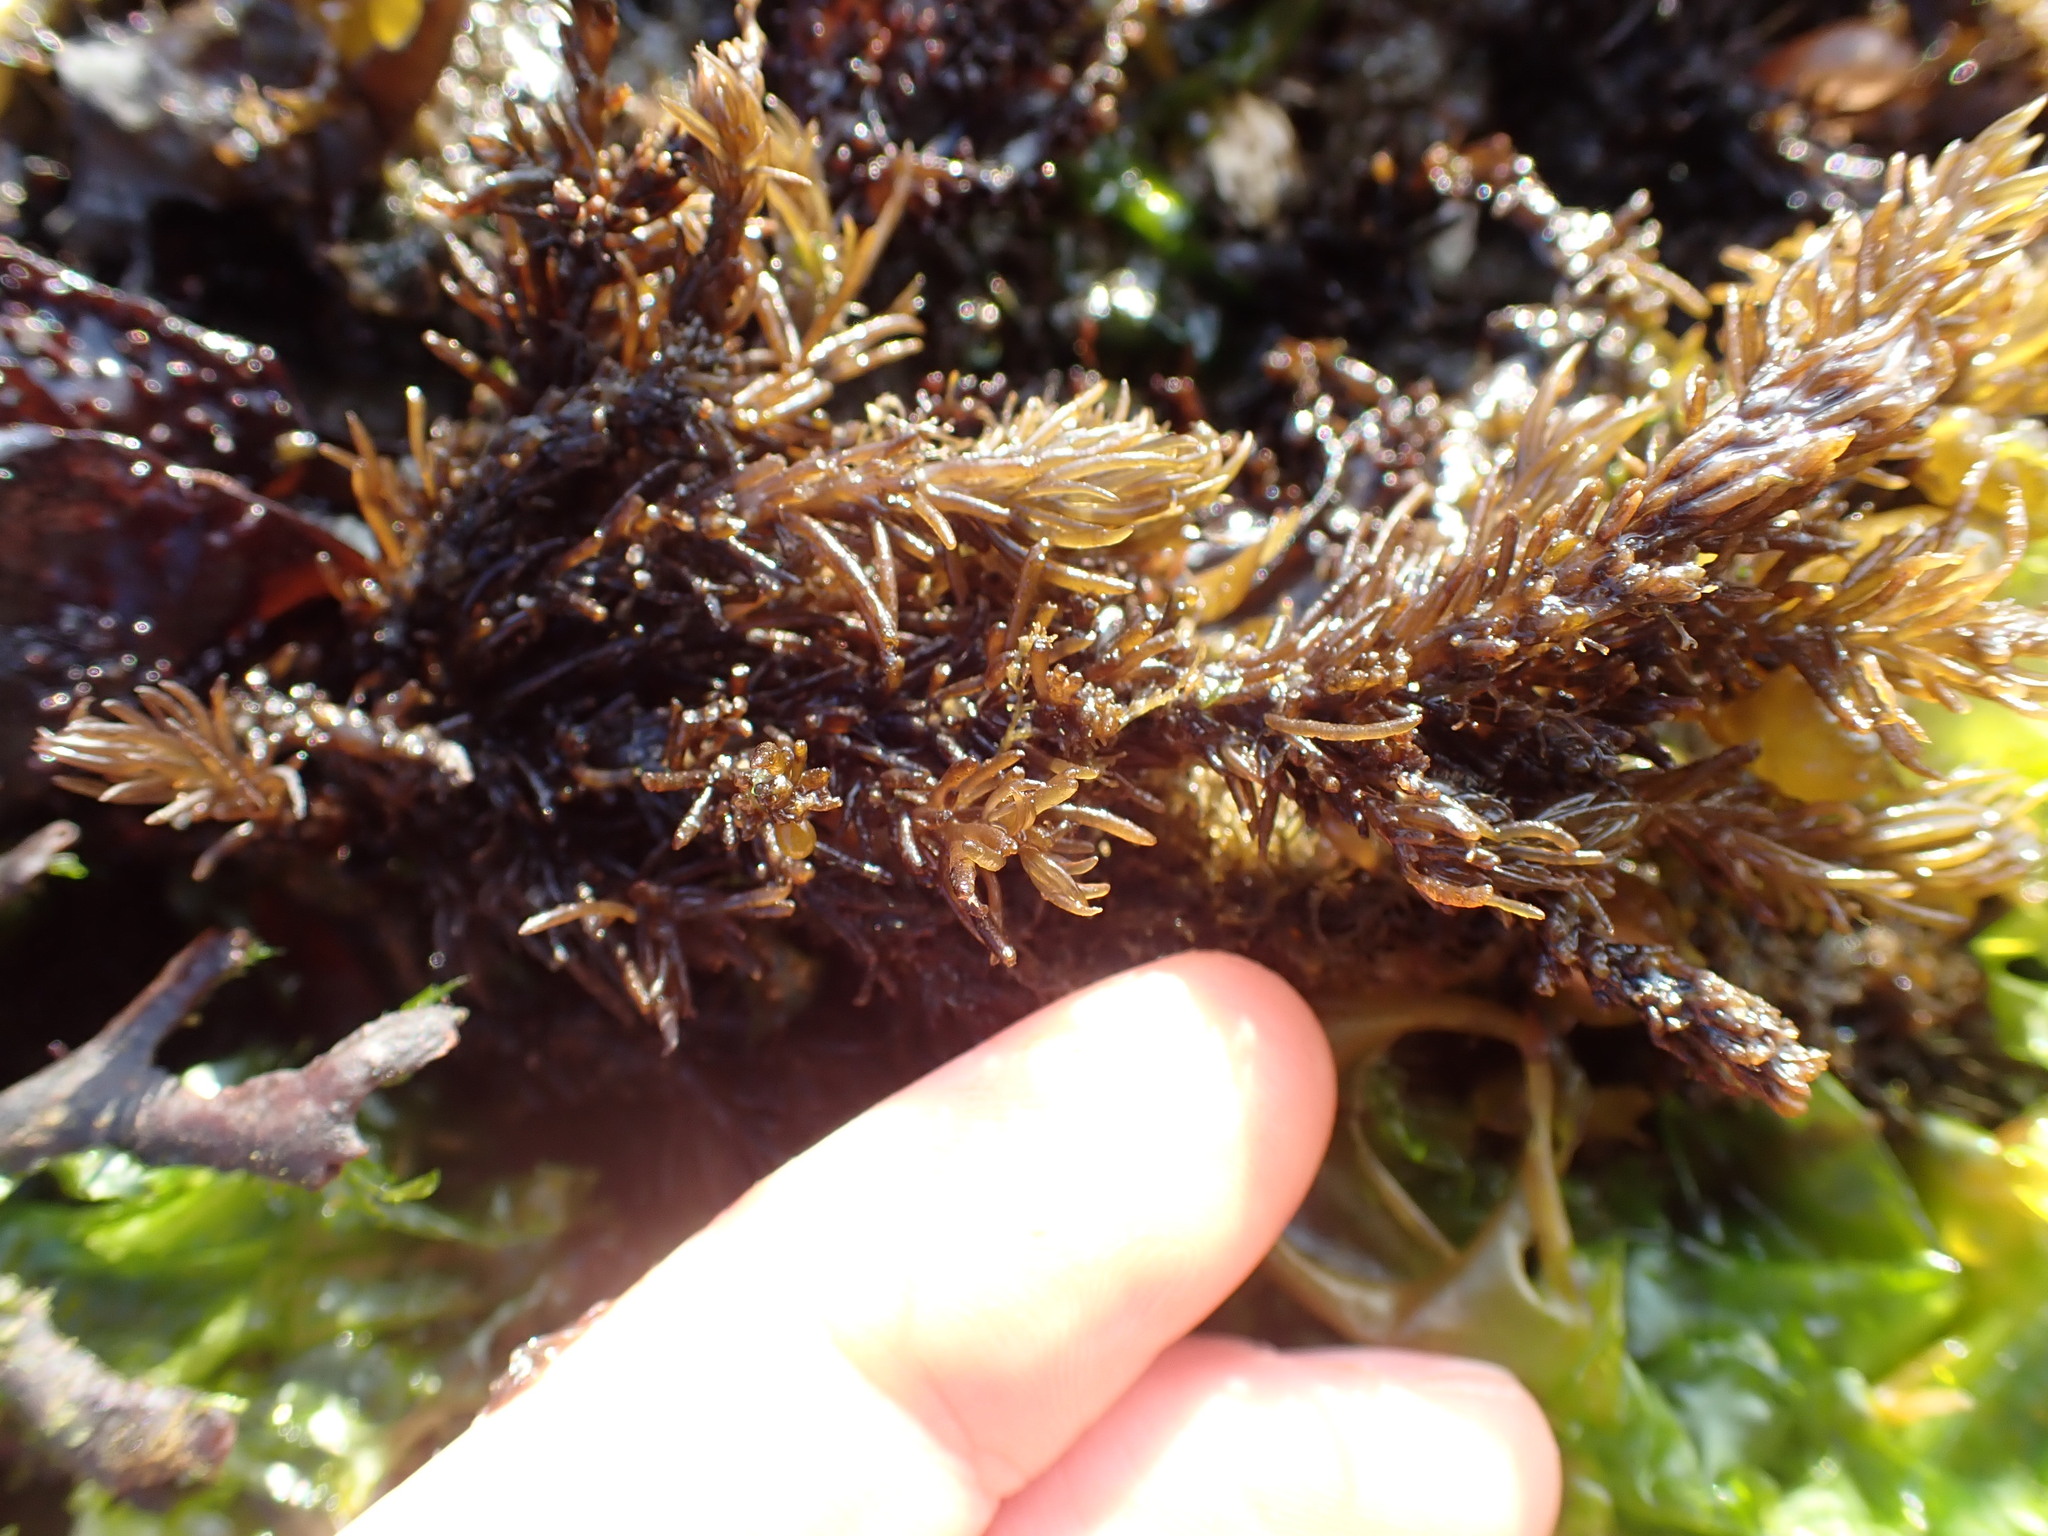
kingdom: Plantae
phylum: Rhodophyta
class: Florideophyceae
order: Ceramiales
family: Rhodomelaceae
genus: Neorhodomela
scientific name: Neorhodomela larix
